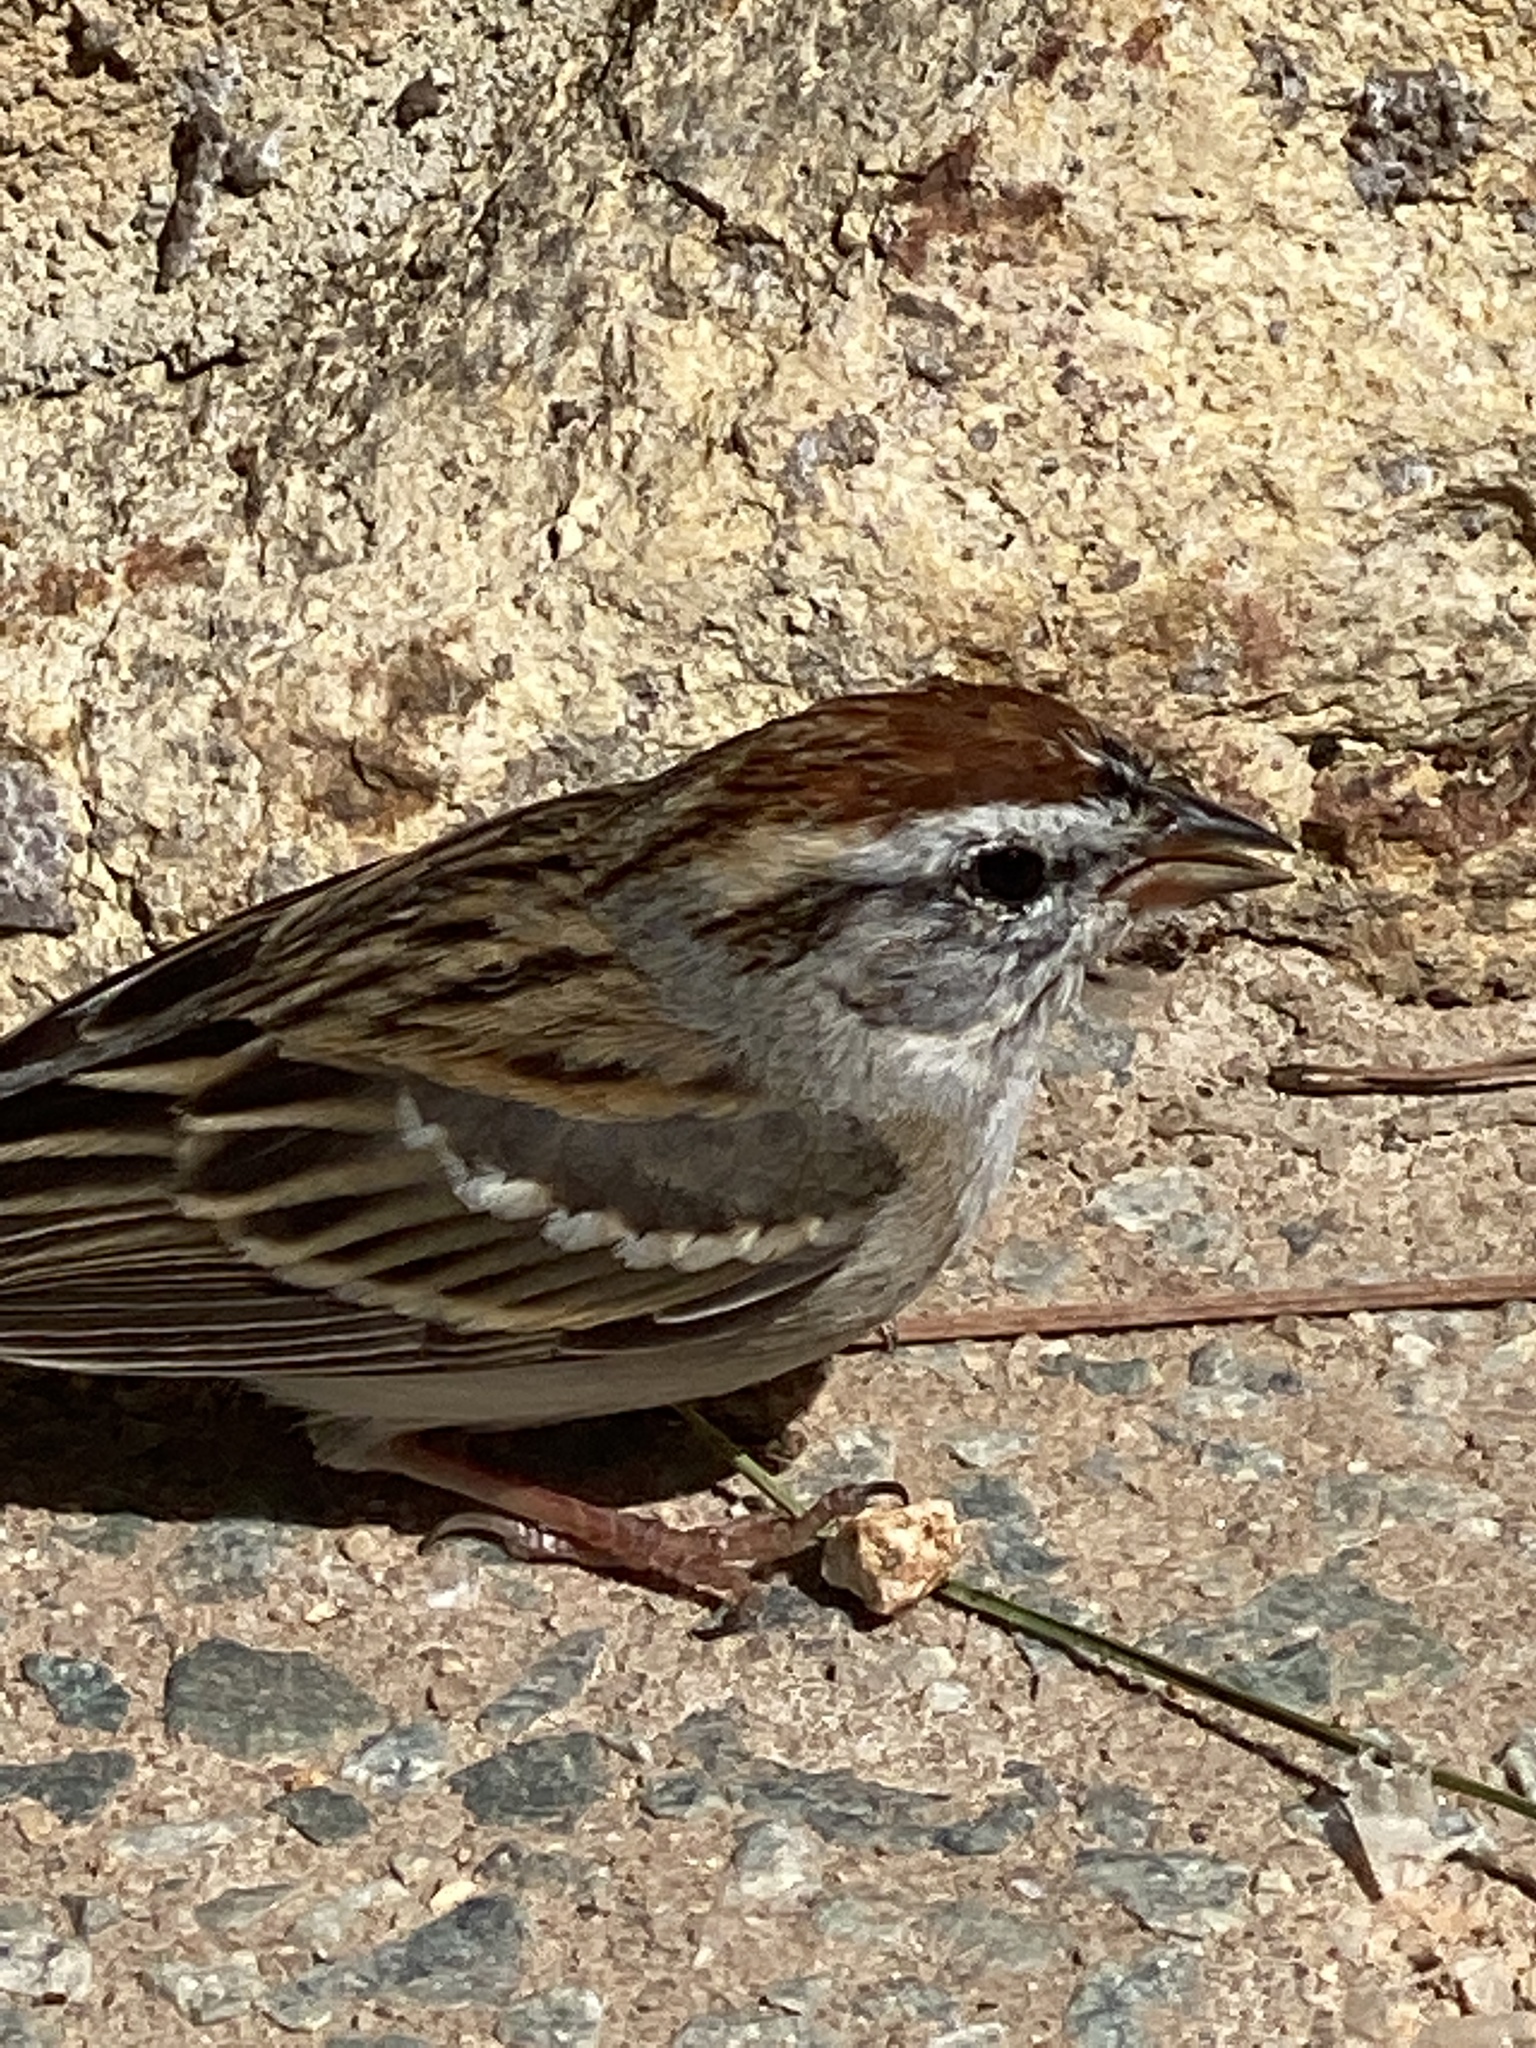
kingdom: Animalia
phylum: Chordata
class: Aves
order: Passeriformes
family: Passerellidae
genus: Spizella
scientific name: Spizella passerina
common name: Chipping sparrow
